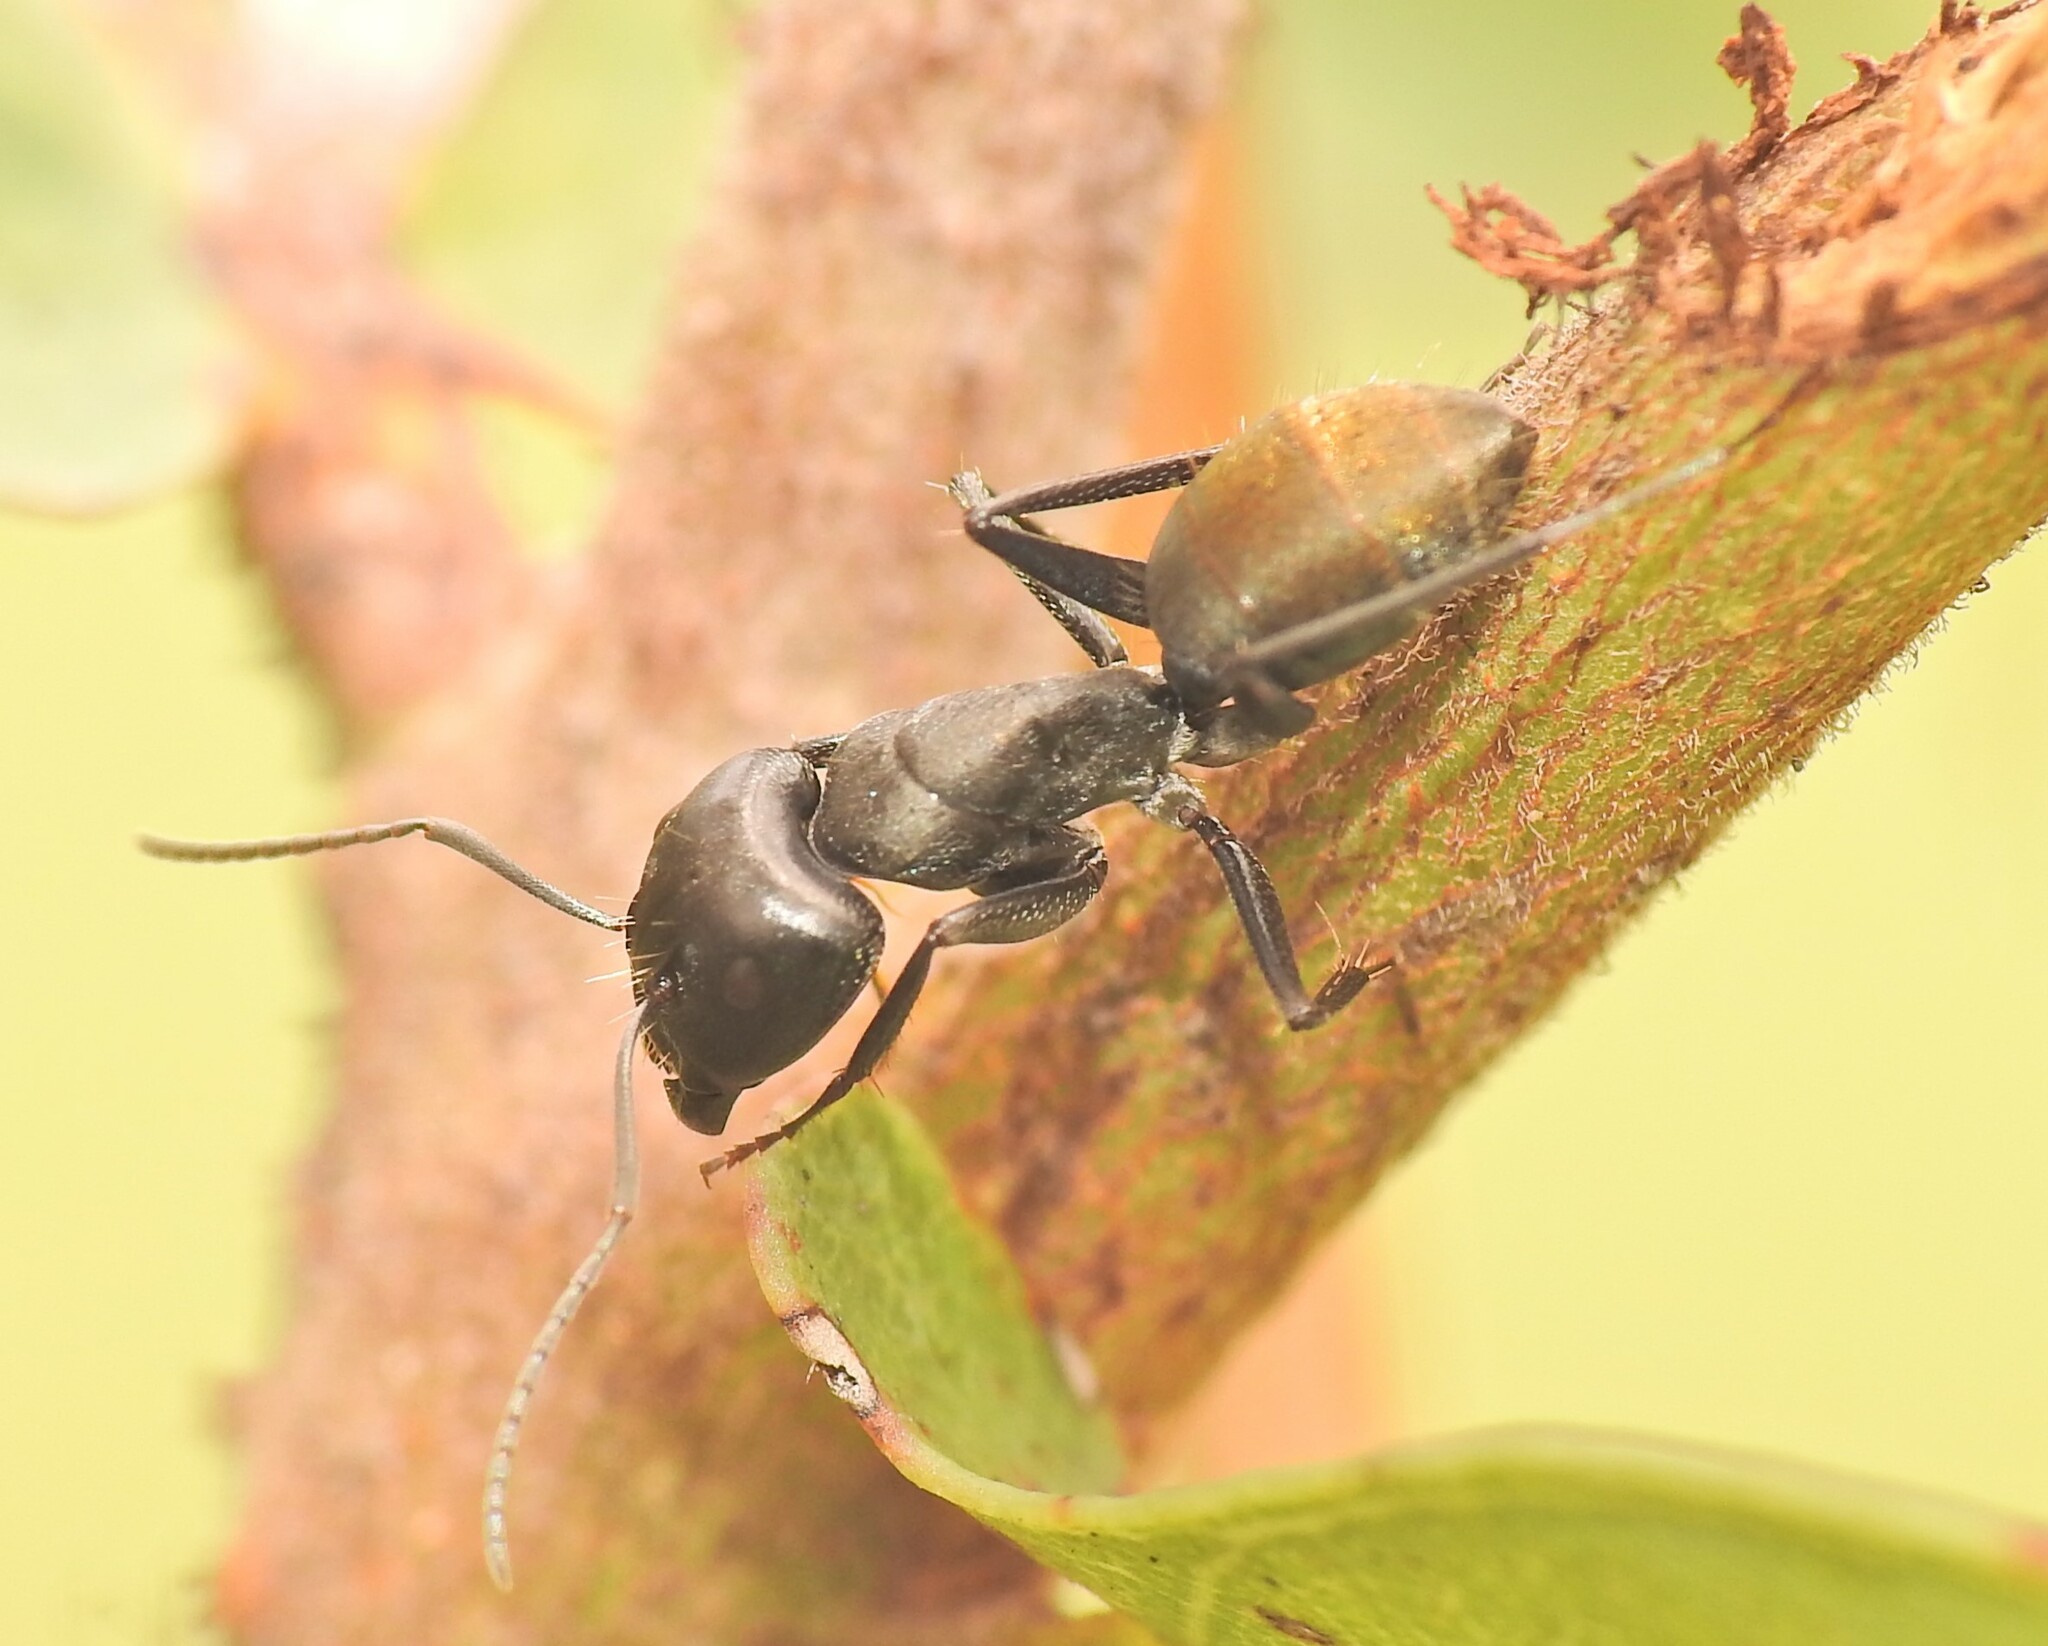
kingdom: Animalia
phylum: Arthropoda
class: Insecta
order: Hymenoptera
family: Formicidae
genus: Camponotus
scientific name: Camponotus aeneopilosus
